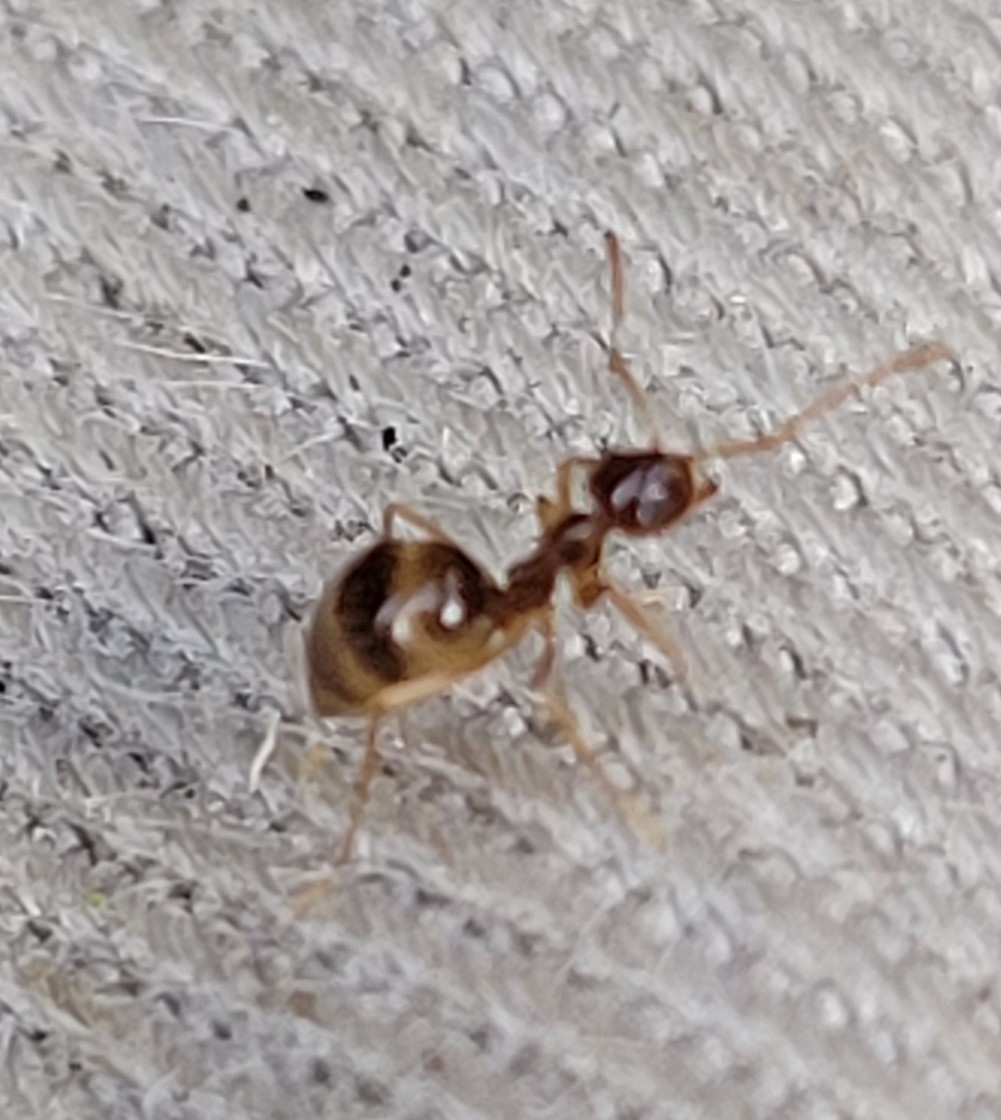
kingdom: Animalia
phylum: Arthropoda
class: Insecta
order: Hymenoptera
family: Formicidae
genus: Prenolepis
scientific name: Prenolepis imparis
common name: Small honey ant
